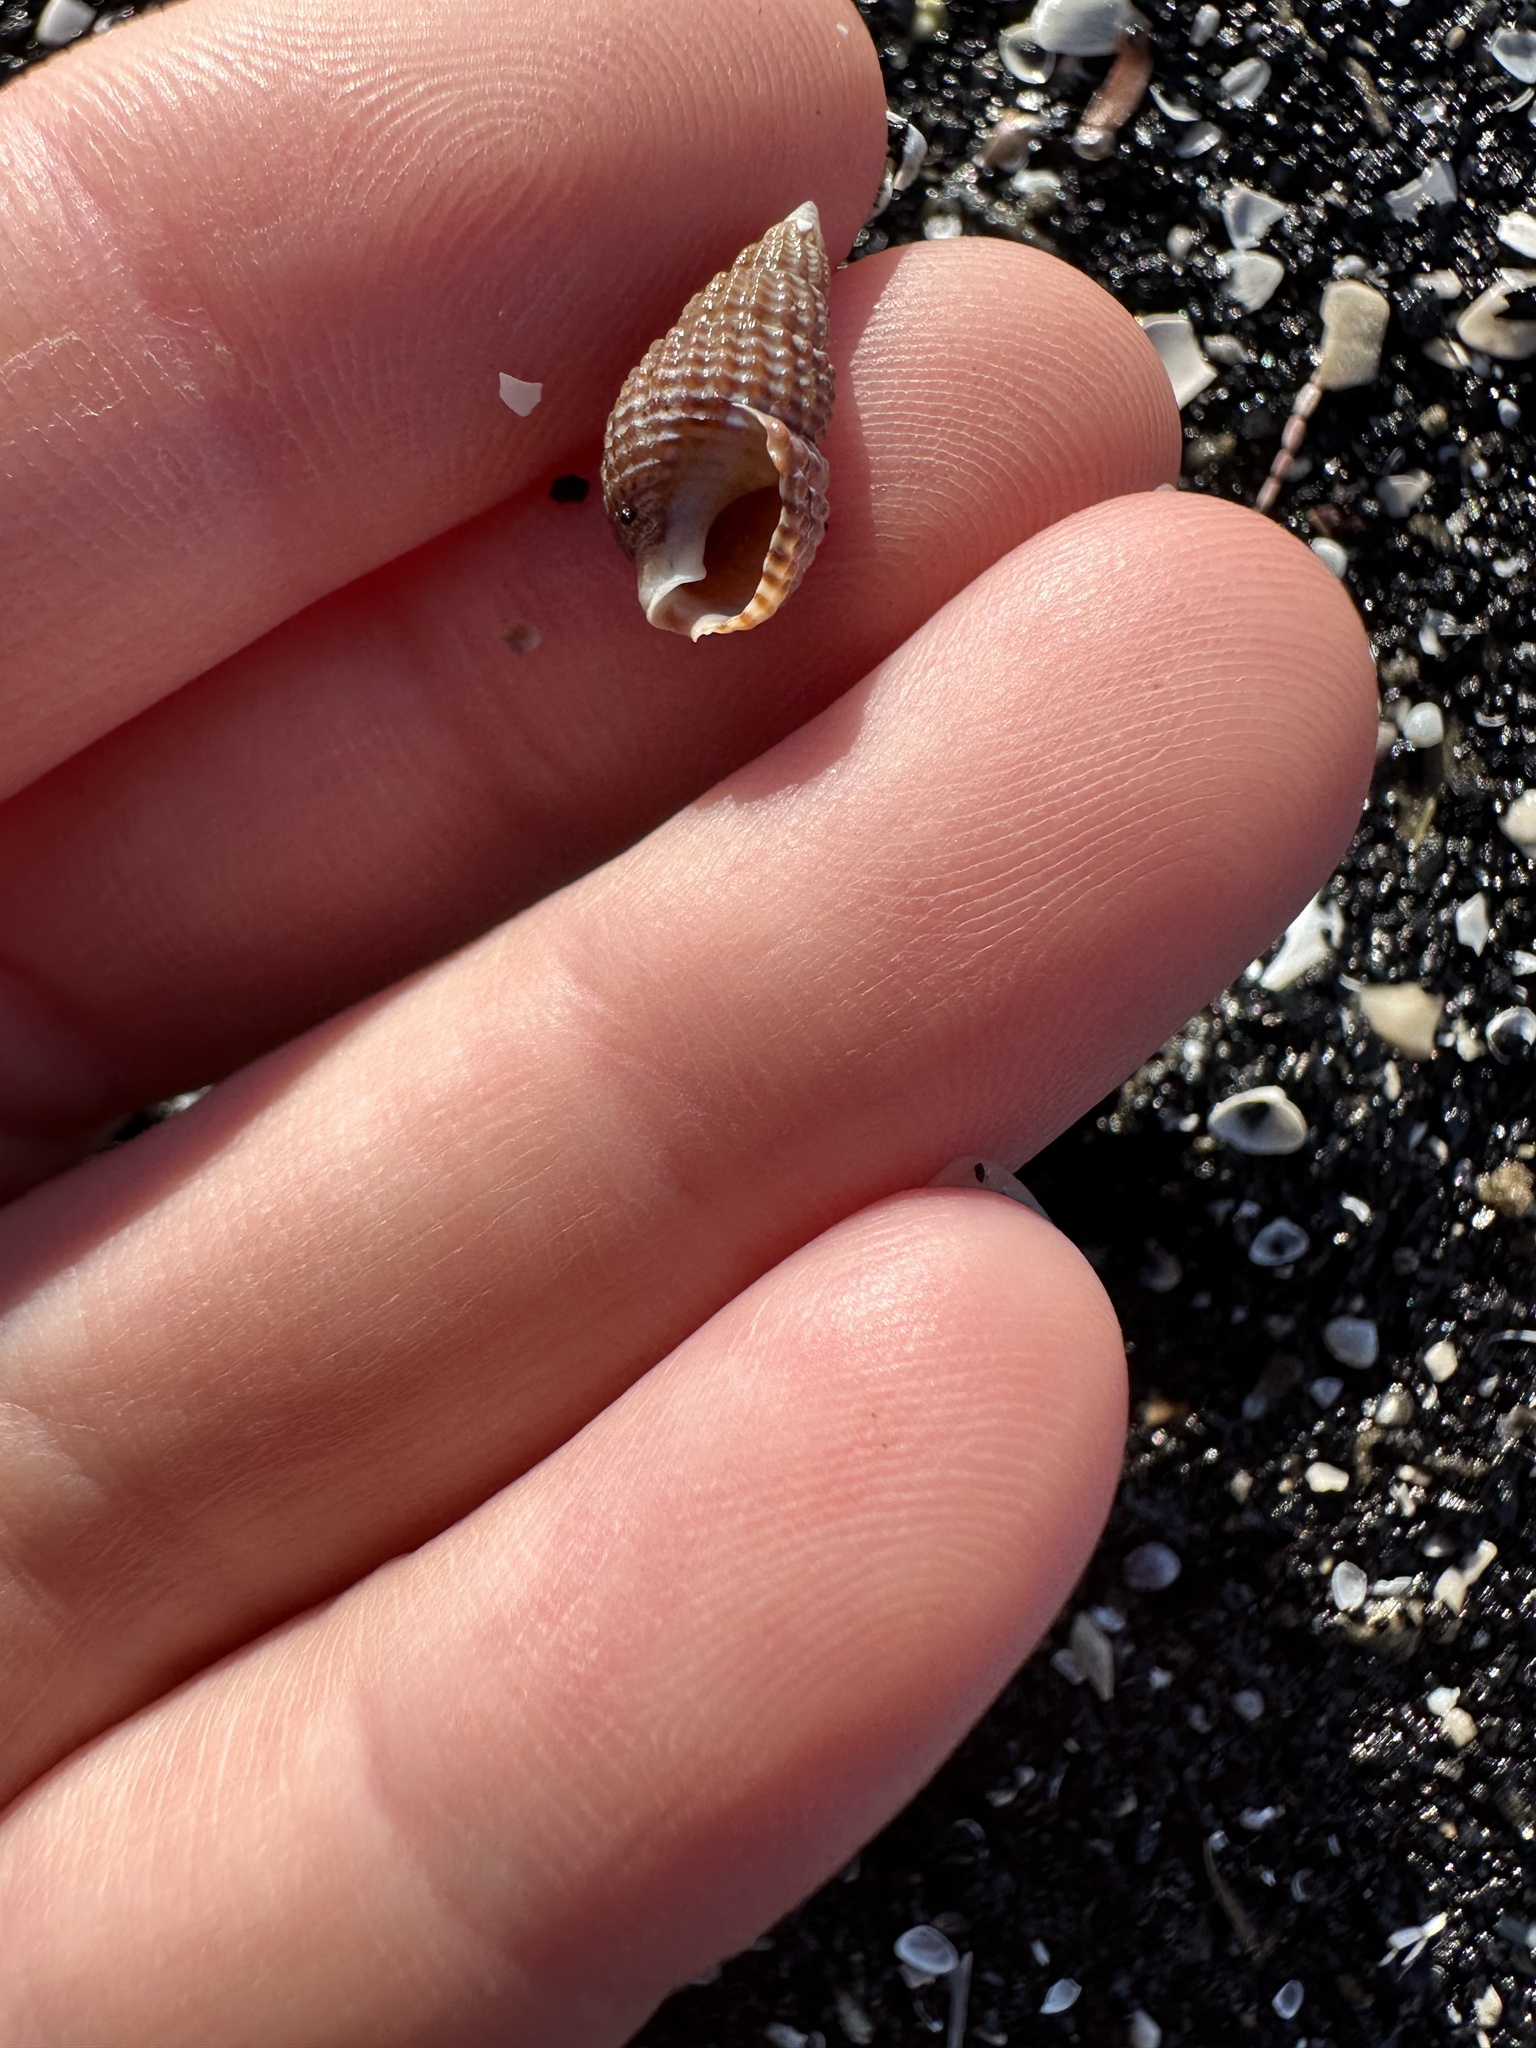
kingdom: Animalia
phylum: Mollusca
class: Gastropoda
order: Neogastropoda
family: Nassariidae
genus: Ilyanassa
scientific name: Ilyanassa trivittata
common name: Three-line mudsnail
